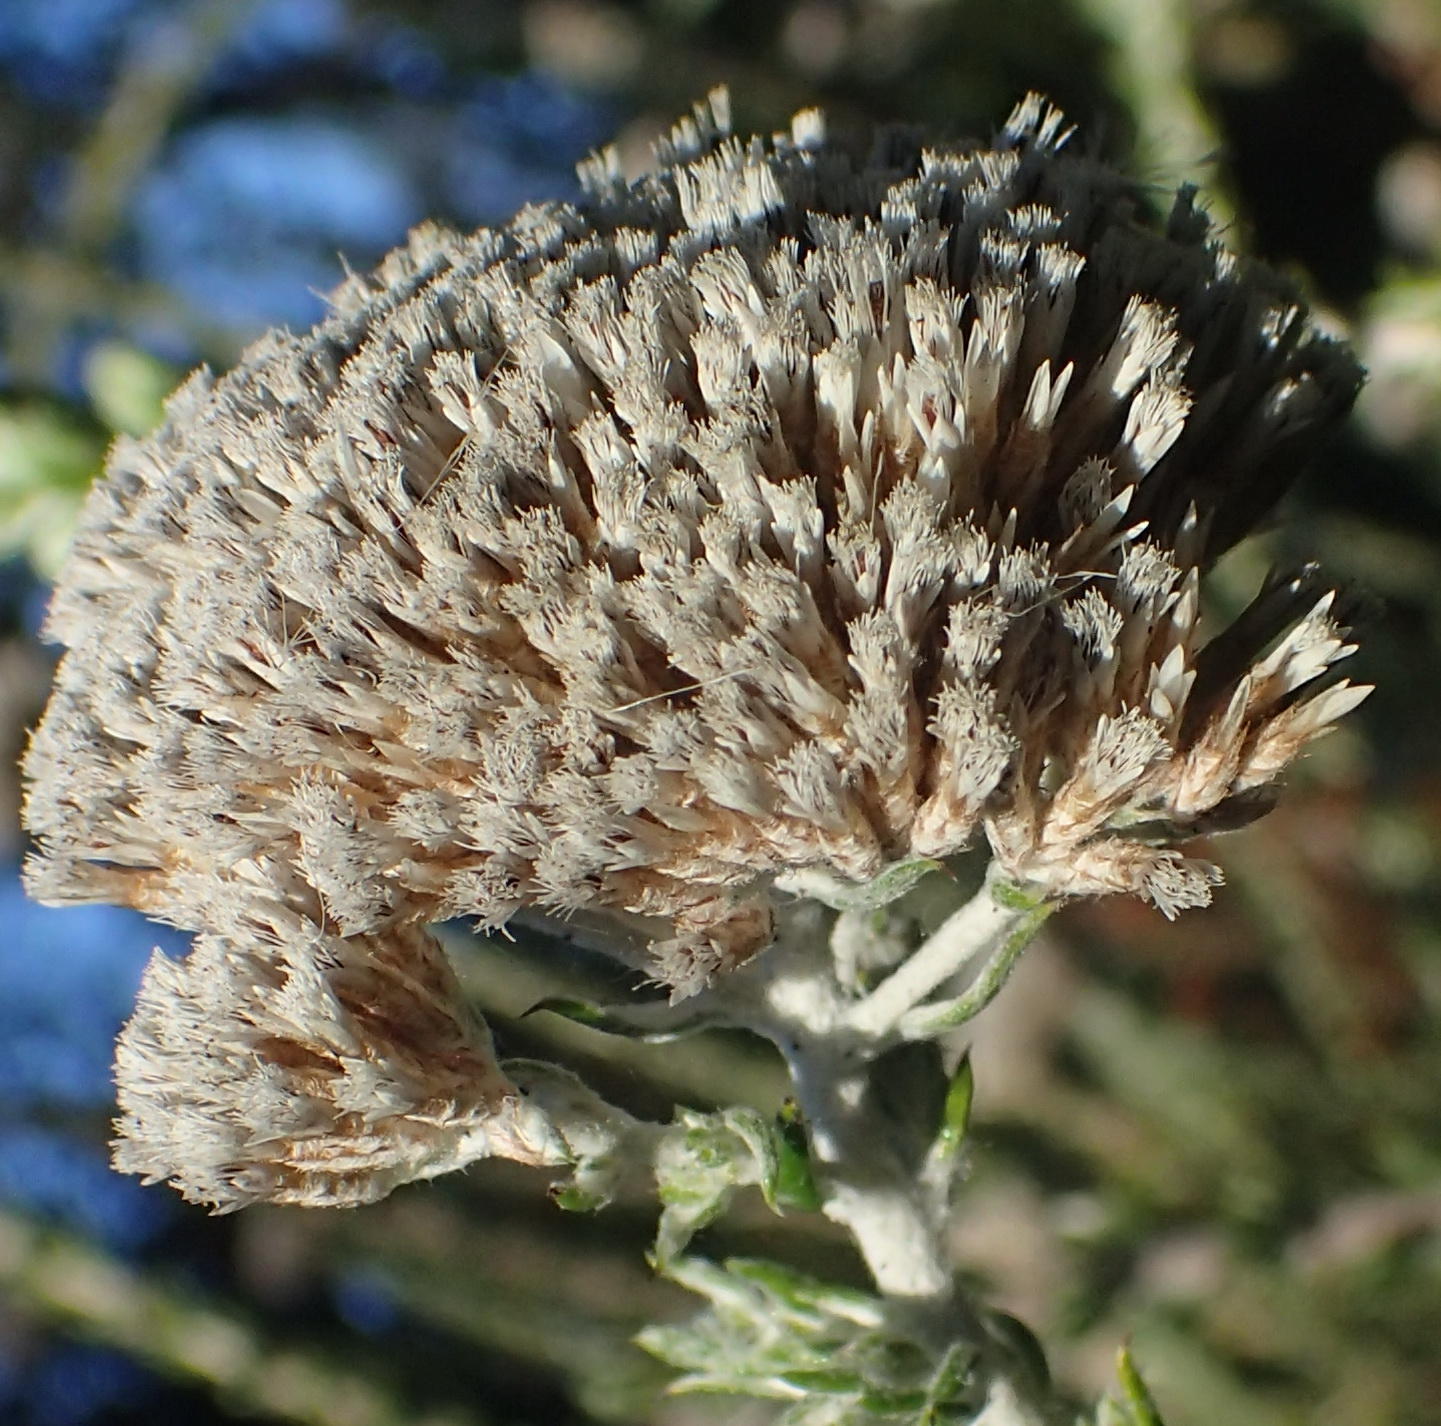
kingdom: Plantae
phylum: Tracheophyta
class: Magnoliopsida
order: Asterales
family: Asteraceae
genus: Metalasia
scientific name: Metalasia pungens
